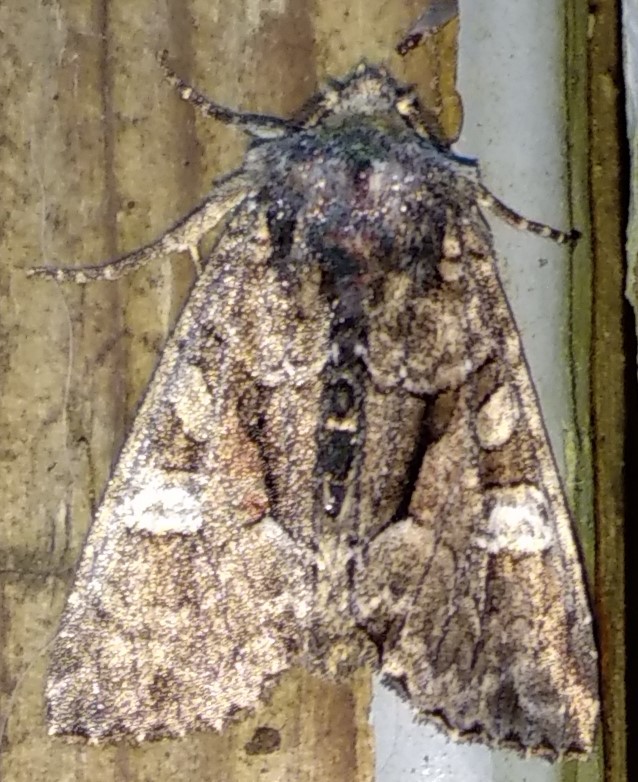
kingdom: Animalia
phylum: Arthropoda
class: Insecta
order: Lepidoptera
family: Noctuidae
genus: Lacanobia
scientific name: Lacanobia subjuncta
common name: Speckled cutworm moth
